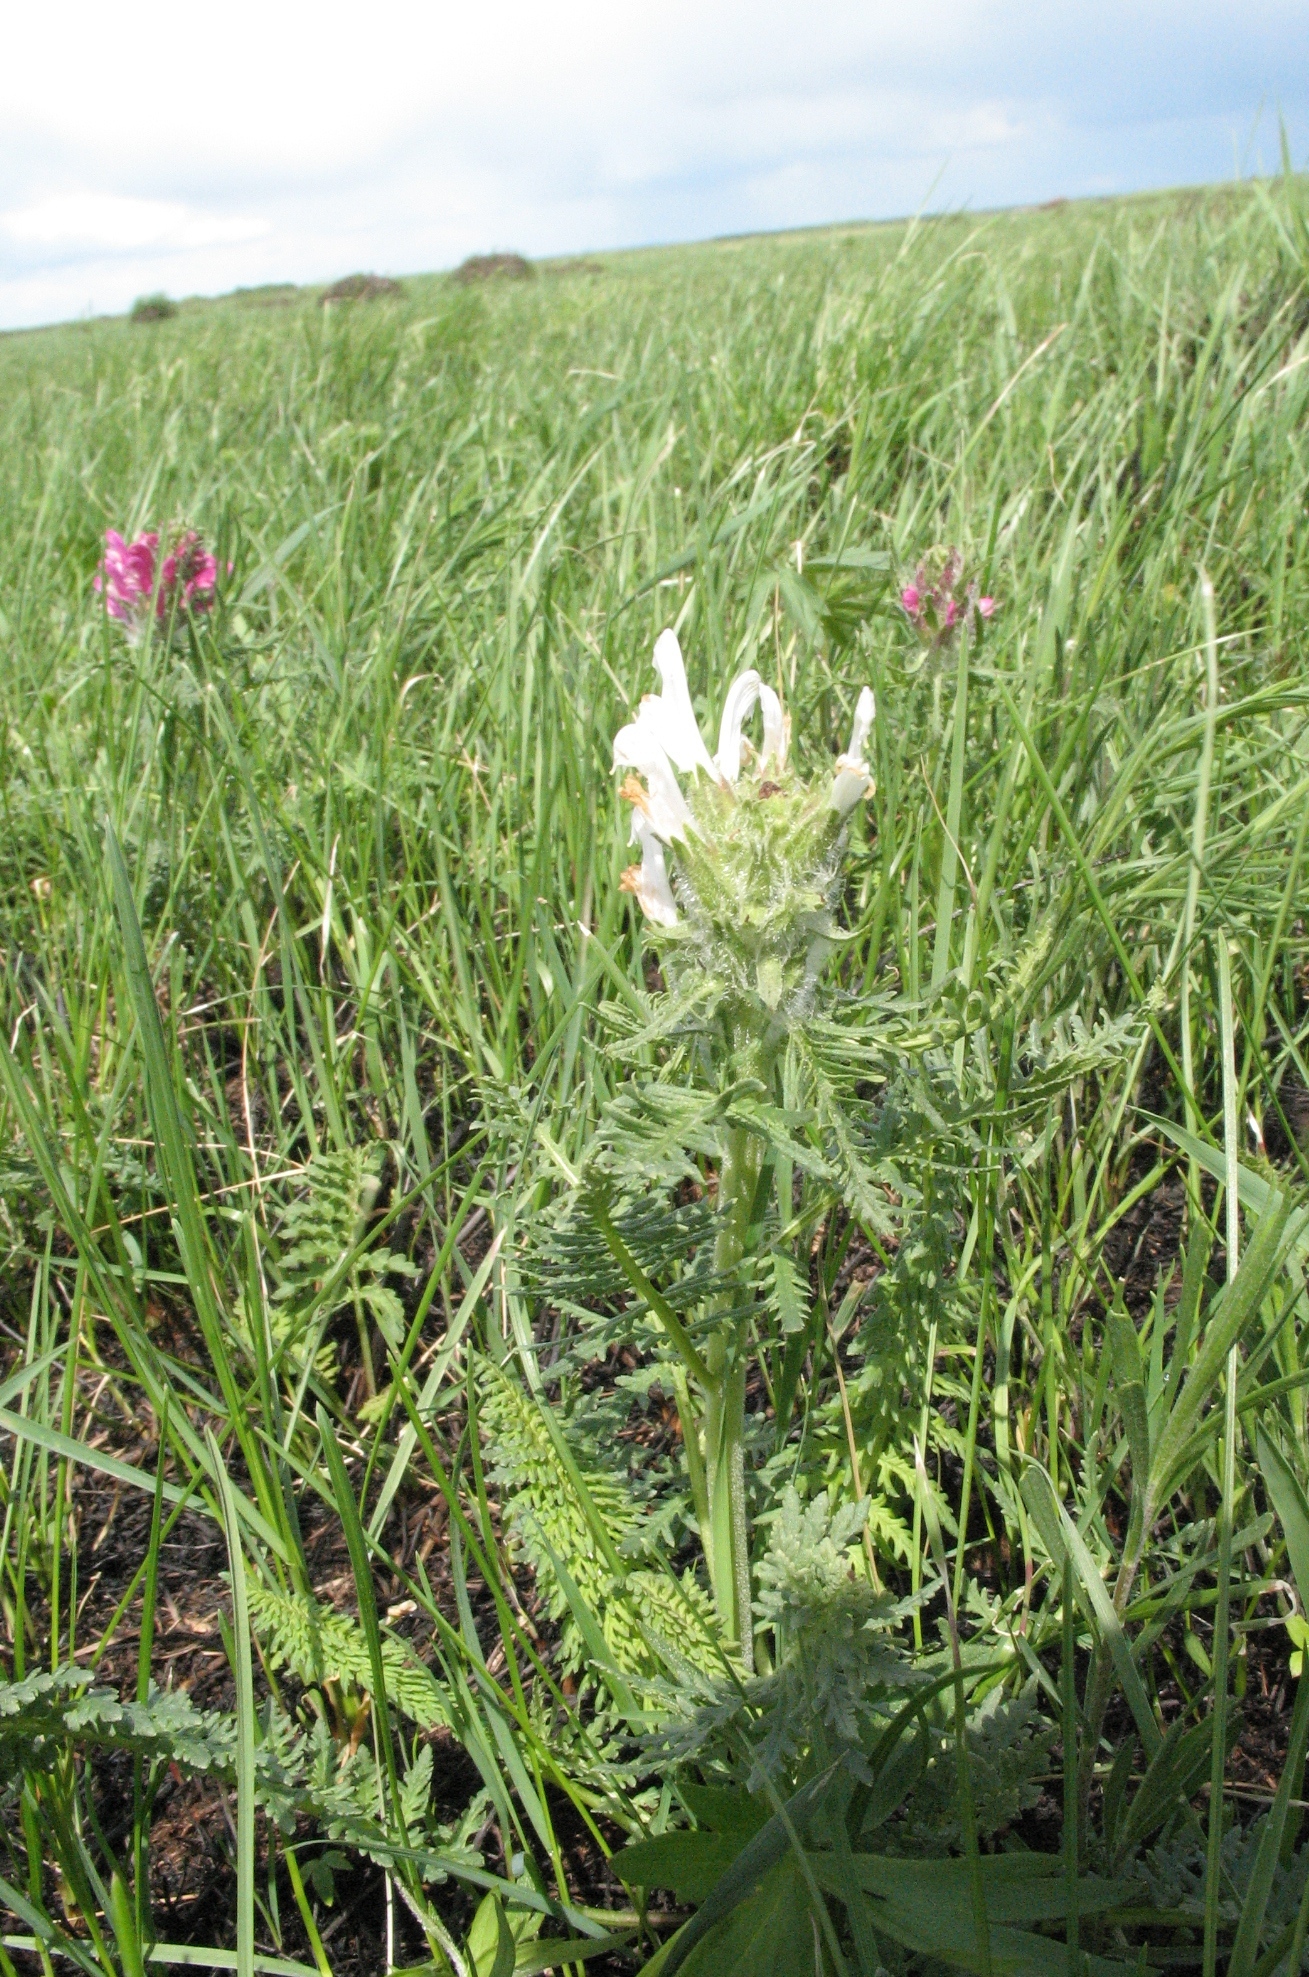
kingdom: Plantae
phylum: Tracheophyta
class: Magnoliopsida
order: Lamiales
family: Orobanchaceae
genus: Pedicularis
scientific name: Pedicularis dasystachys
